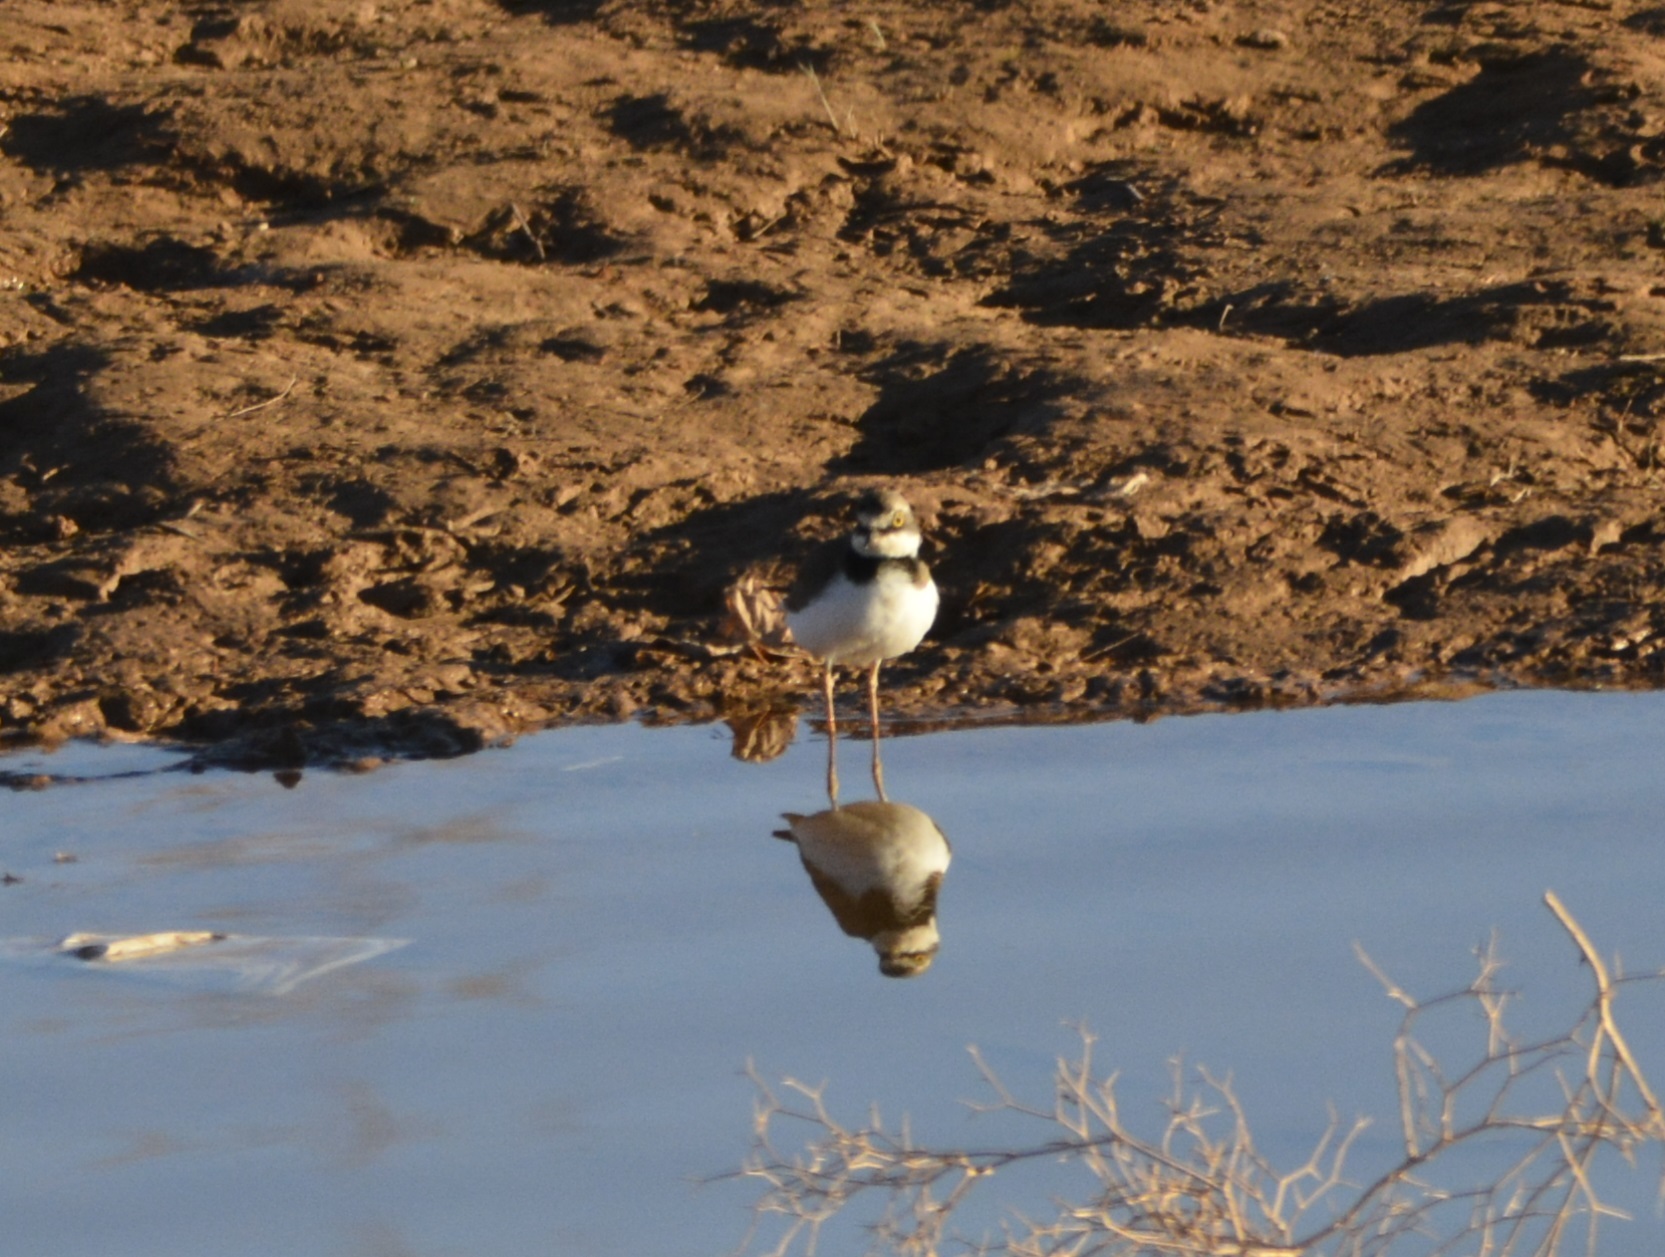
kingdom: Animalia
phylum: Chordata
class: Aves
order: Charadriiformes
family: Charadriidae
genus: Charadrius
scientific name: Charadrius dubius
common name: Little ringed plover
